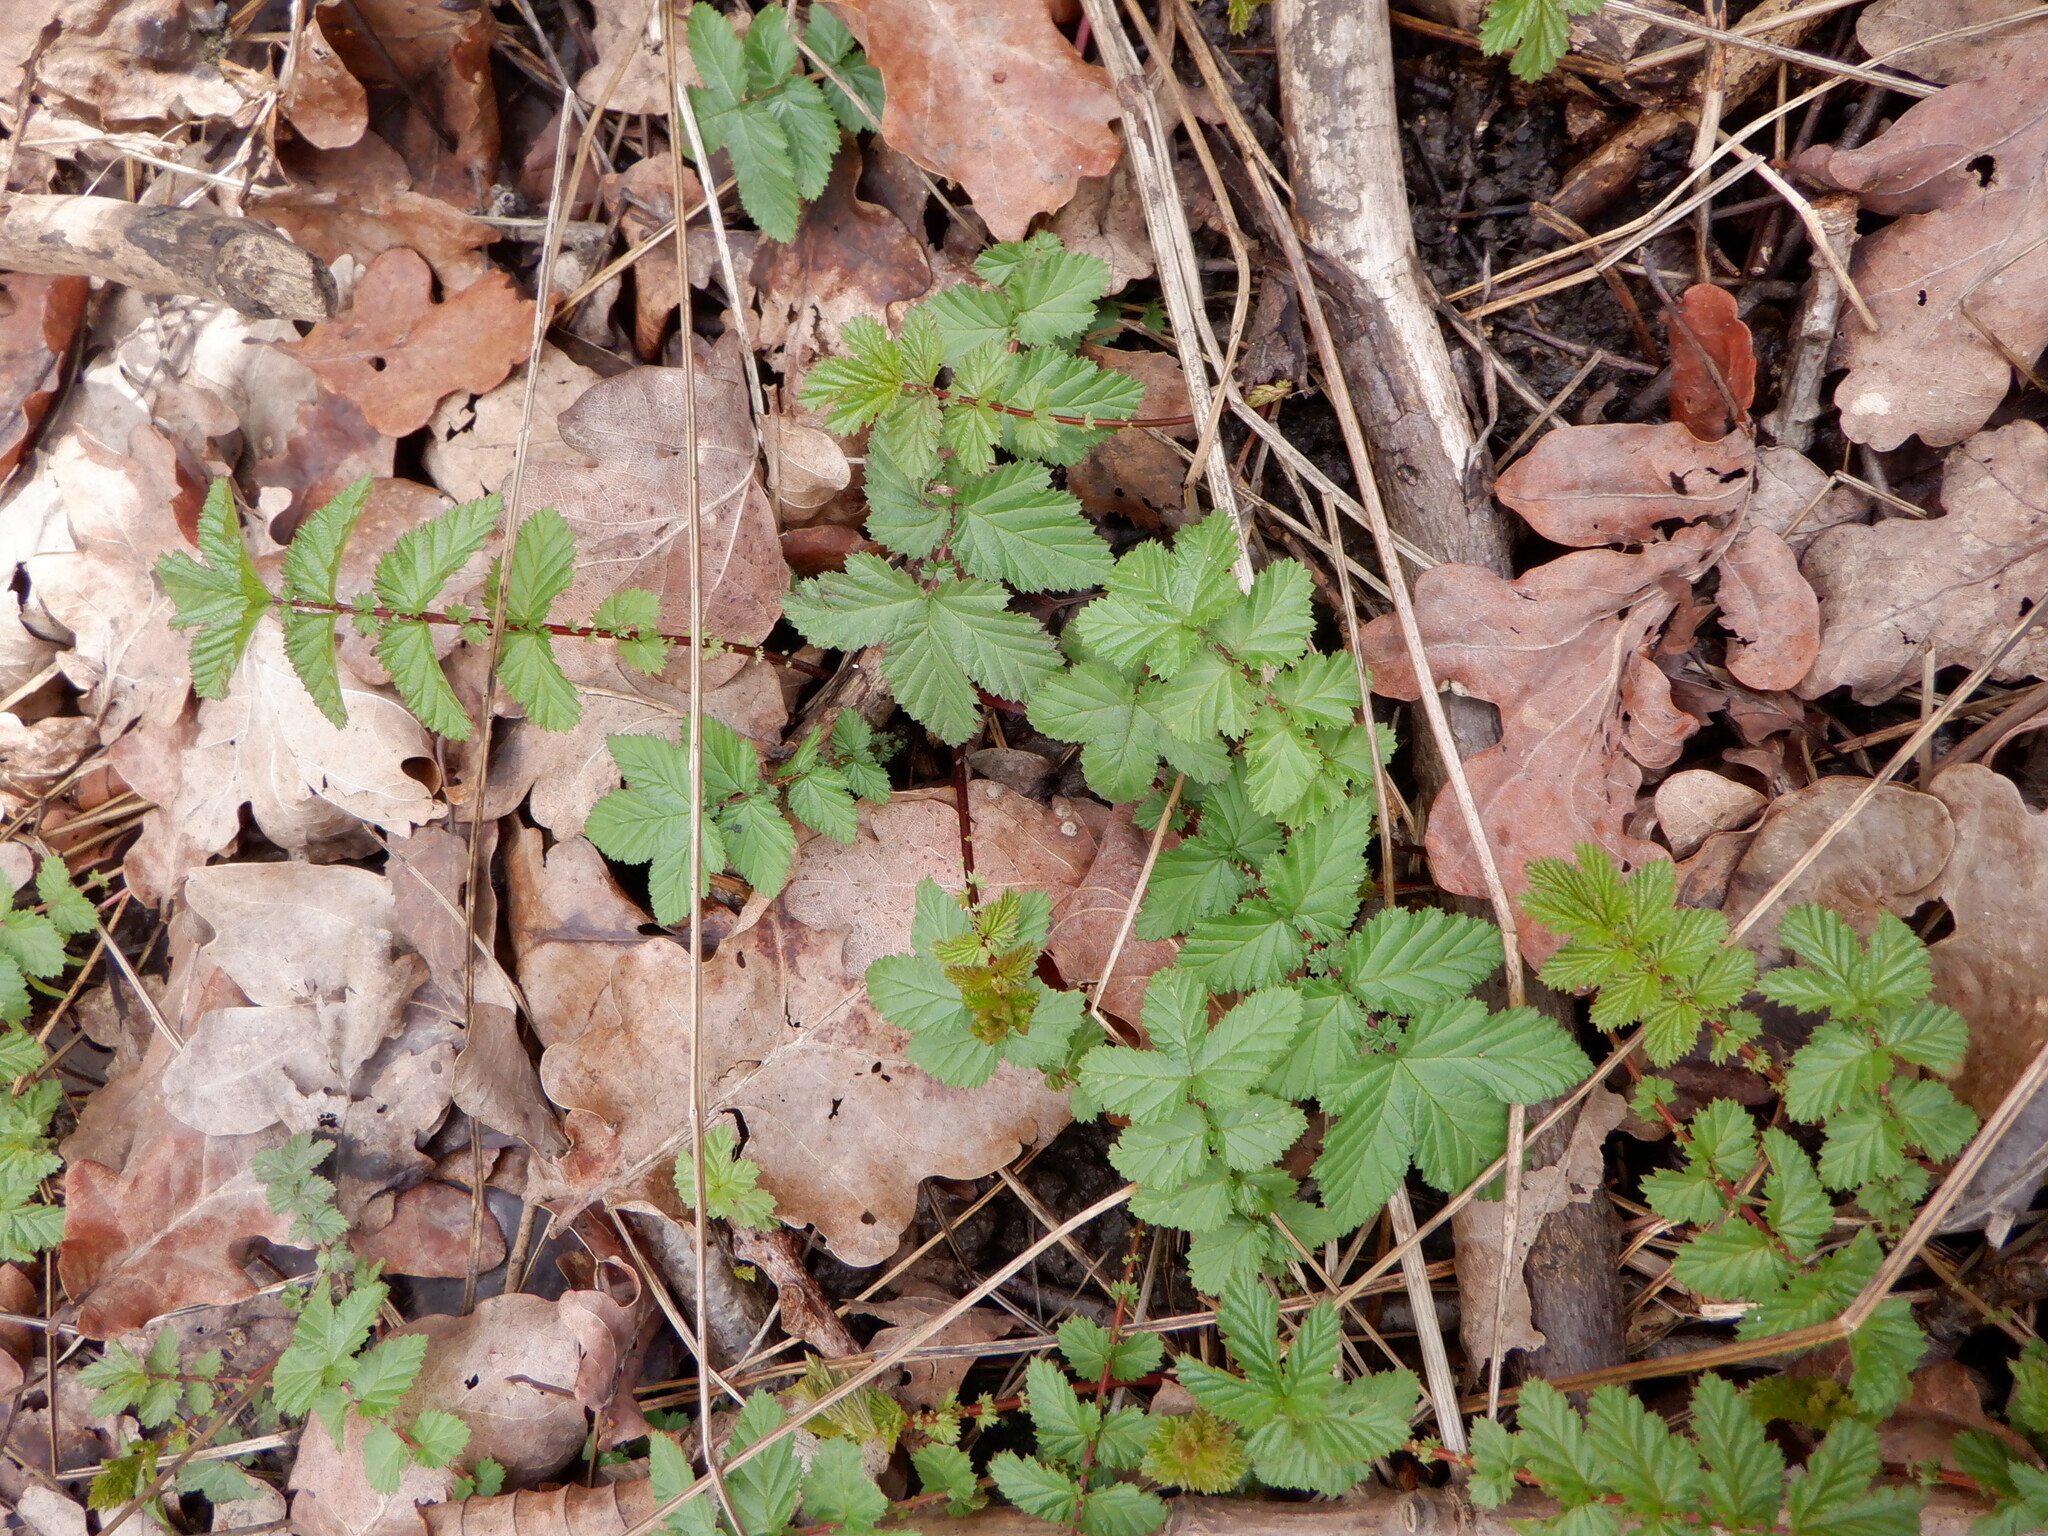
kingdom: Plantae
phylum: Tracheophyta
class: Magnoliopsida
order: Rosales
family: Rosaceae
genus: Filipendula
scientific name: Filipendula ulmaria
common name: Meadowsweet
